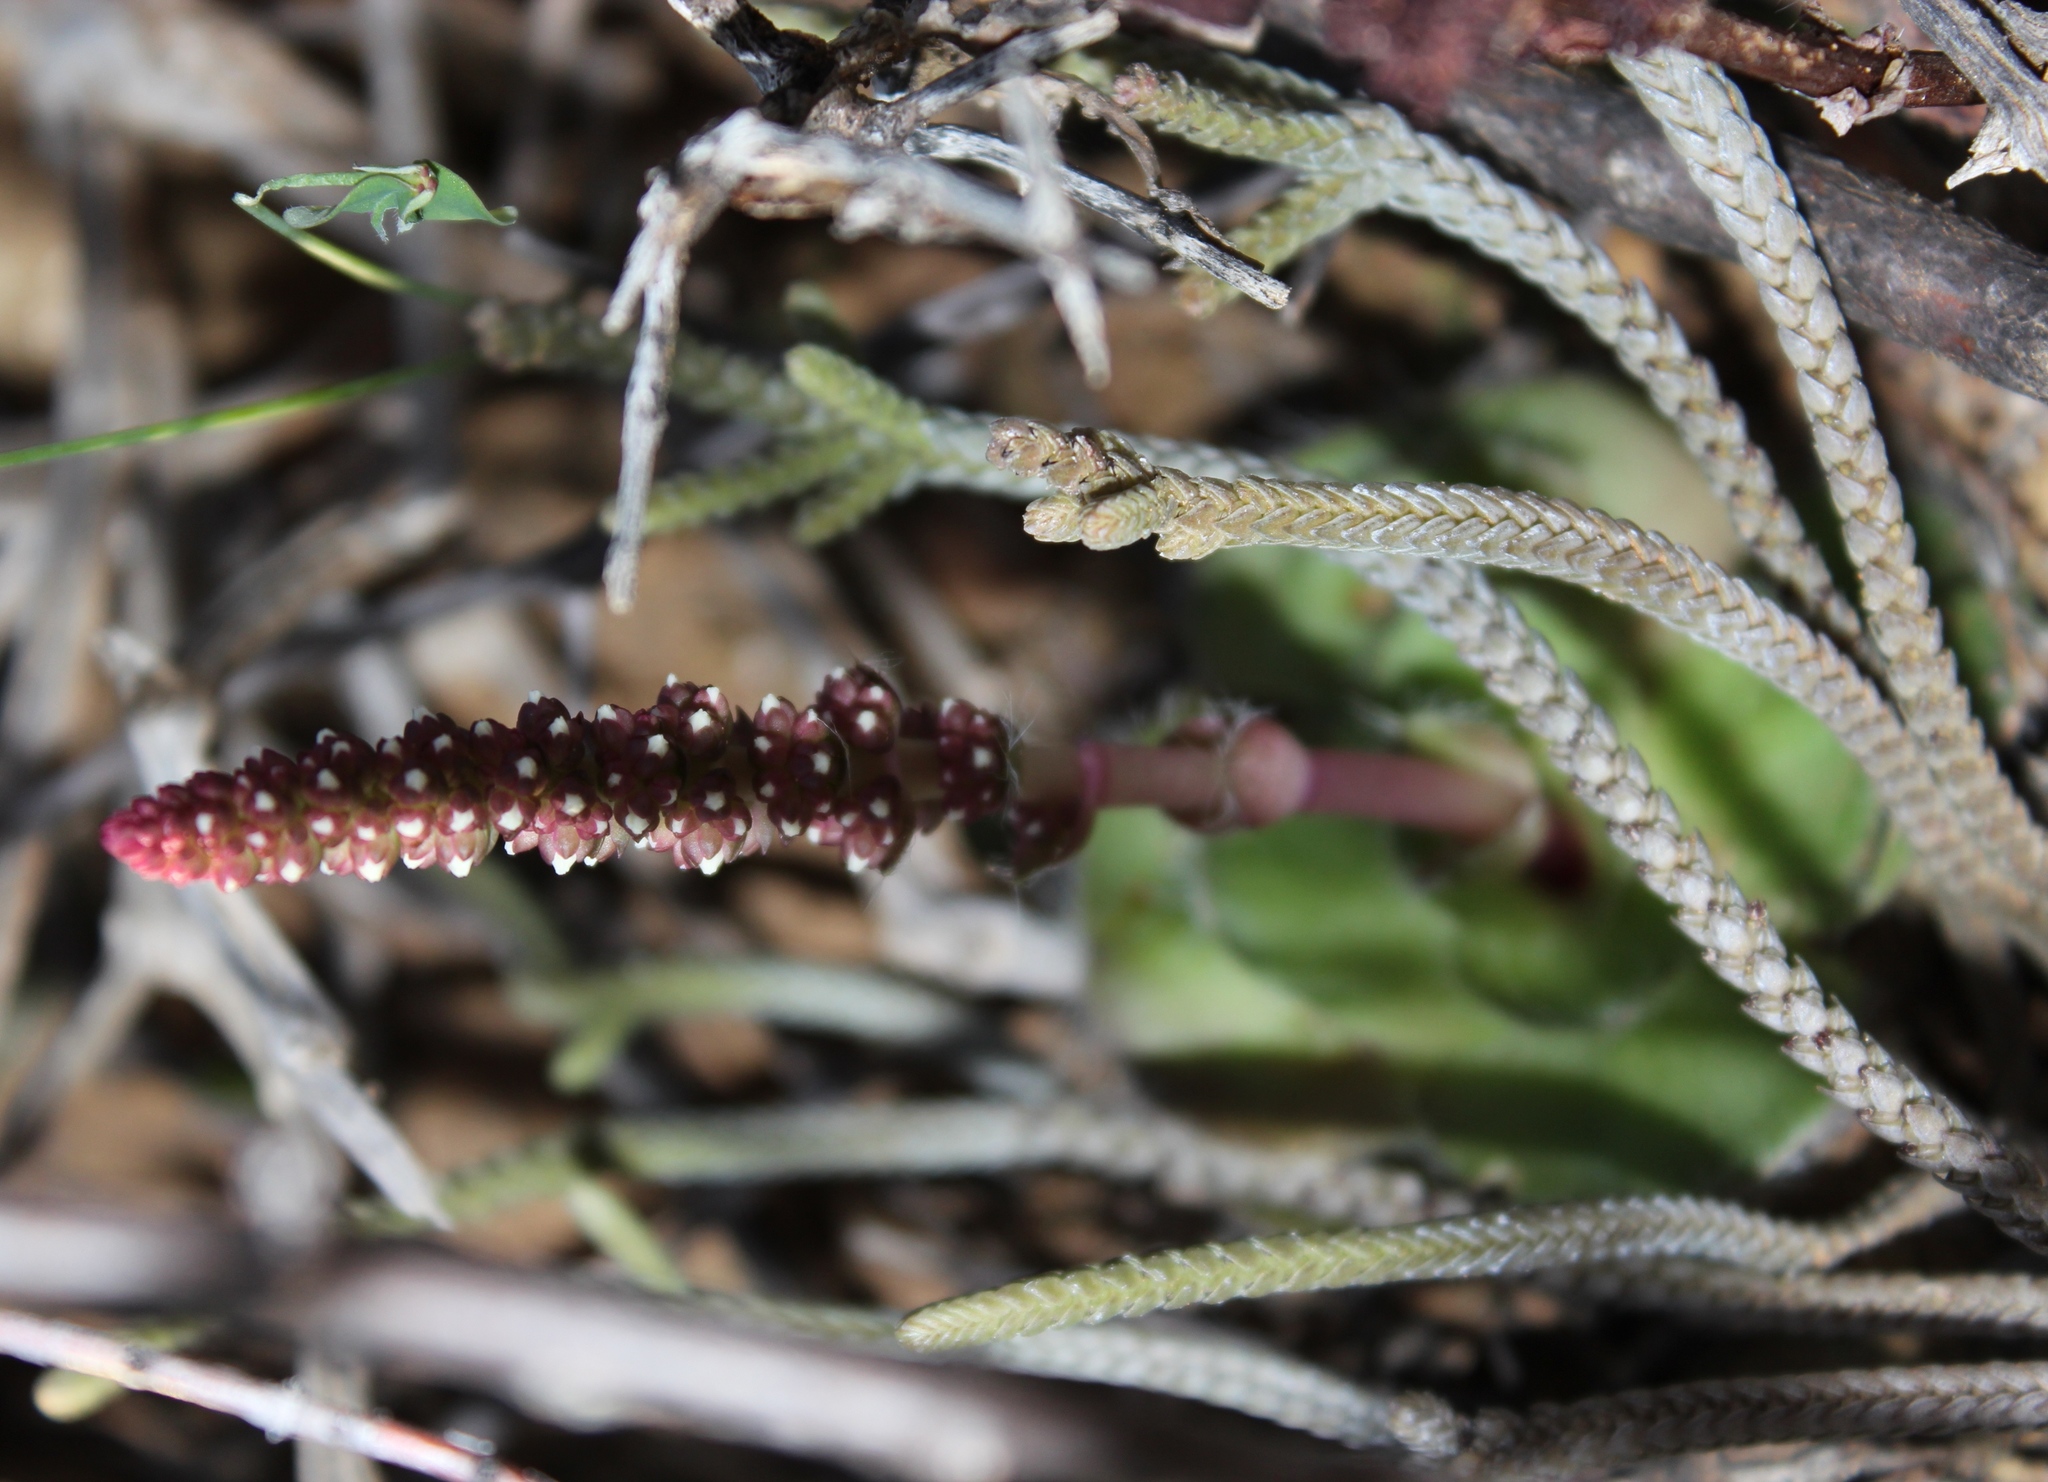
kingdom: Plantae
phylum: Tracheophyta
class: Magnoliopsida
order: Saxifragales
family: Crassulaceae
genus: Crassula
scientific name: Crassula muscosa
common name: Toy-cypress
